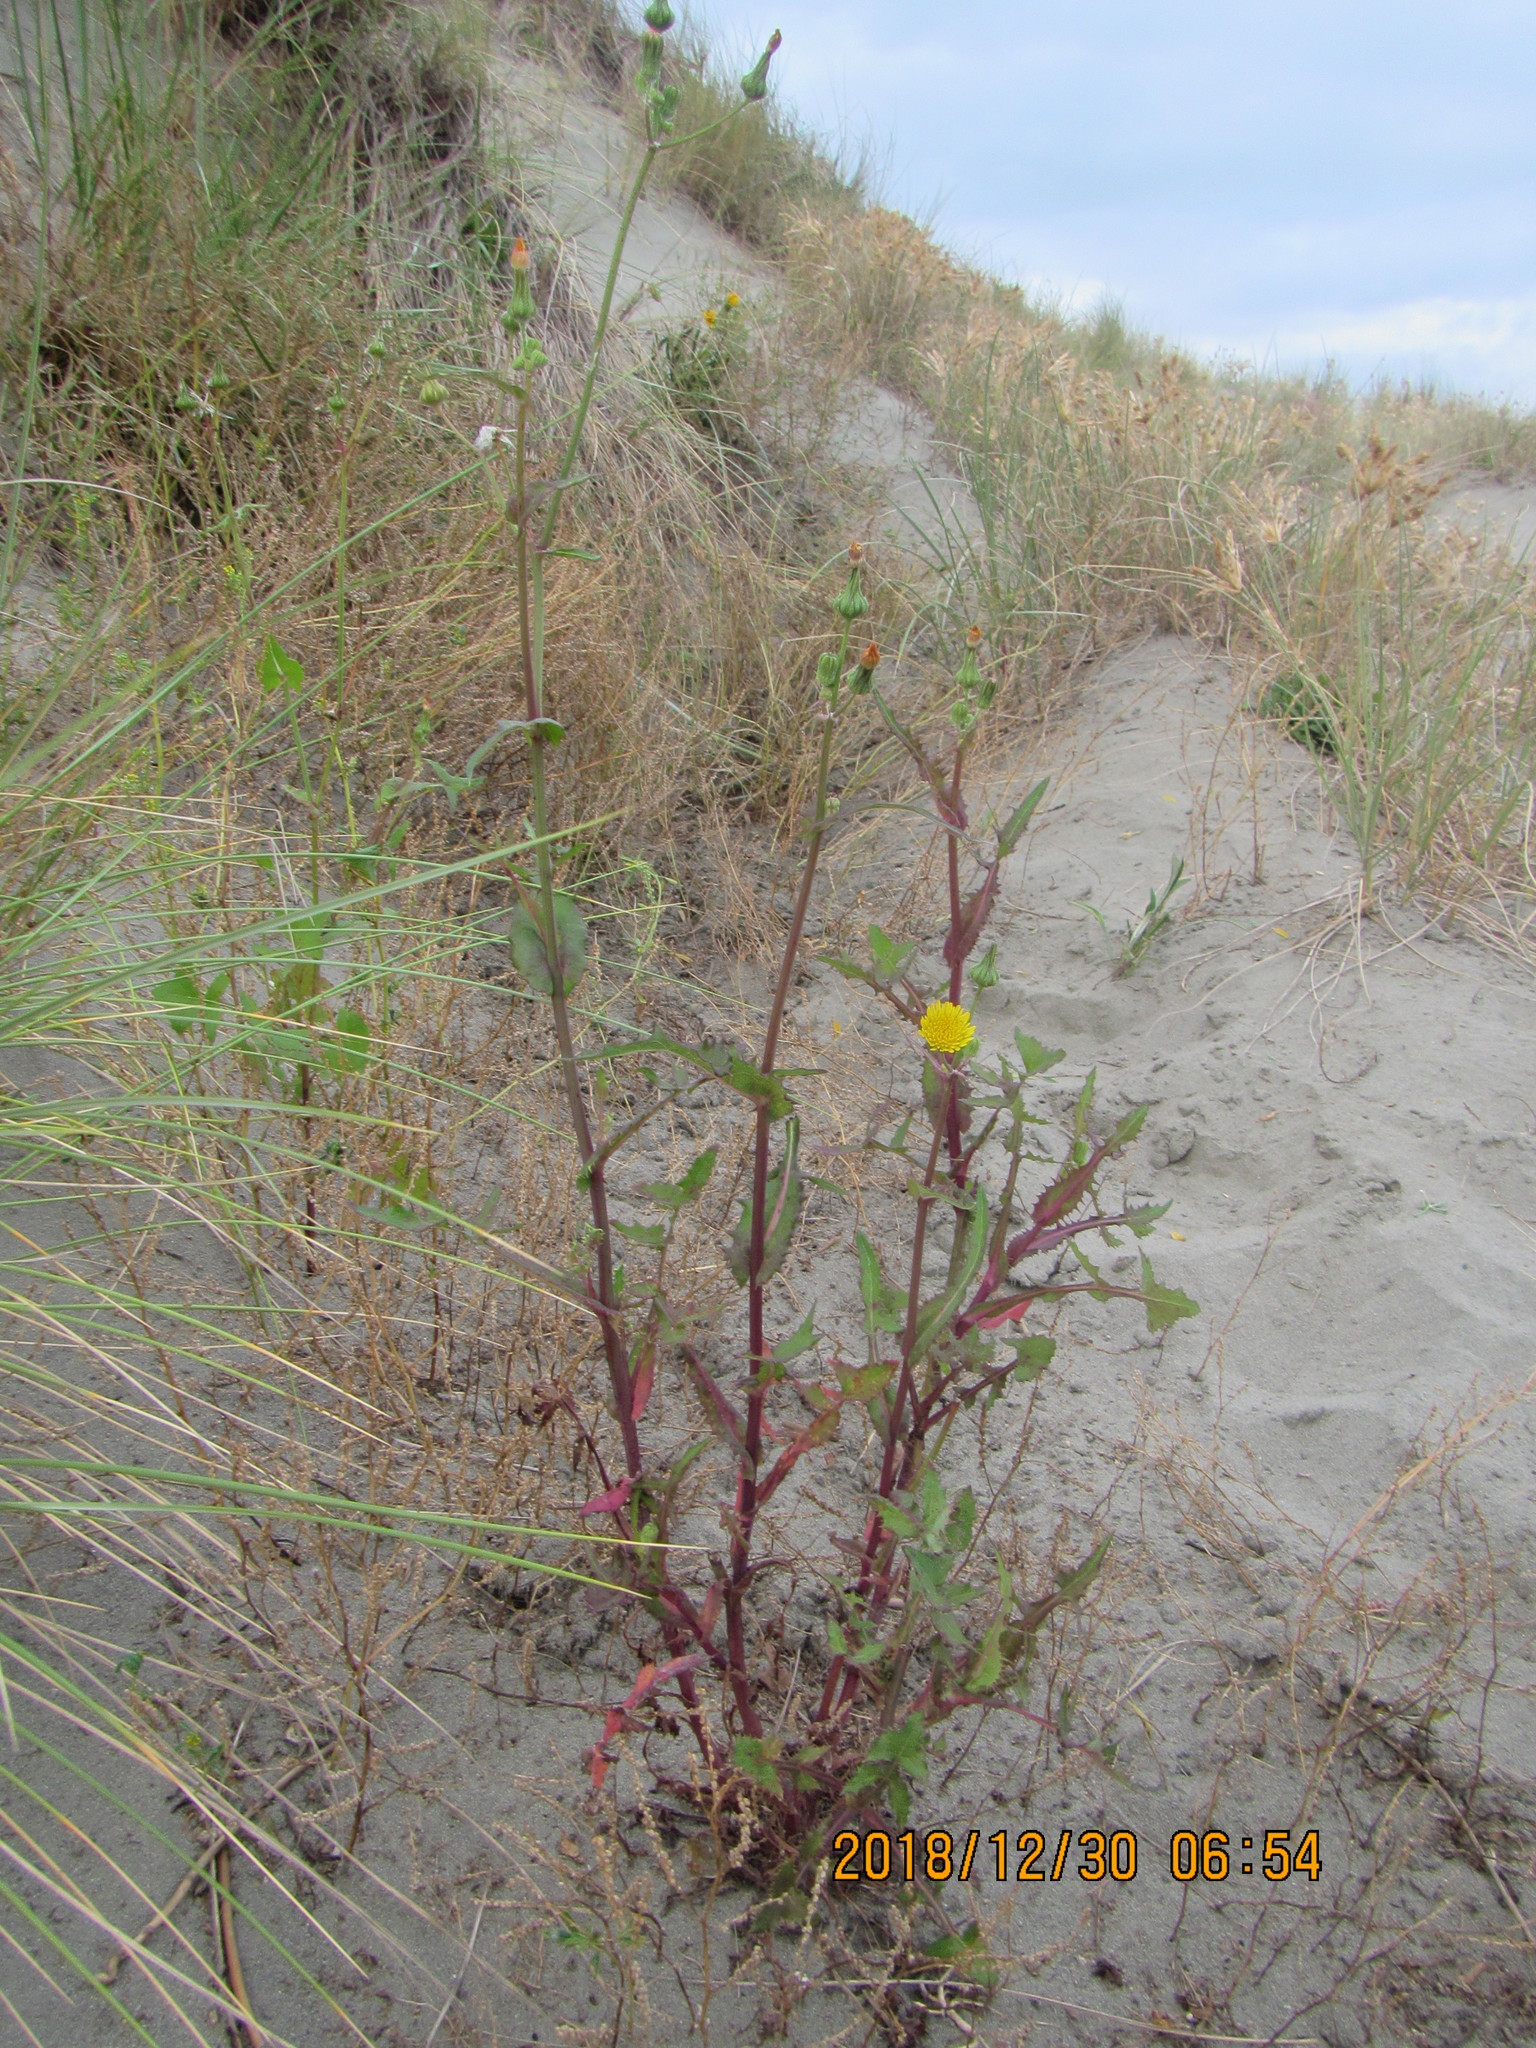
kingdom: Plantae
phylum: Tracheophyta
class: Magnoliopsida
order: Asterales
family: Asteraceae
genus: Sonchus
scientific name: Sonchus oleraceus
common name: Common sowthistle
